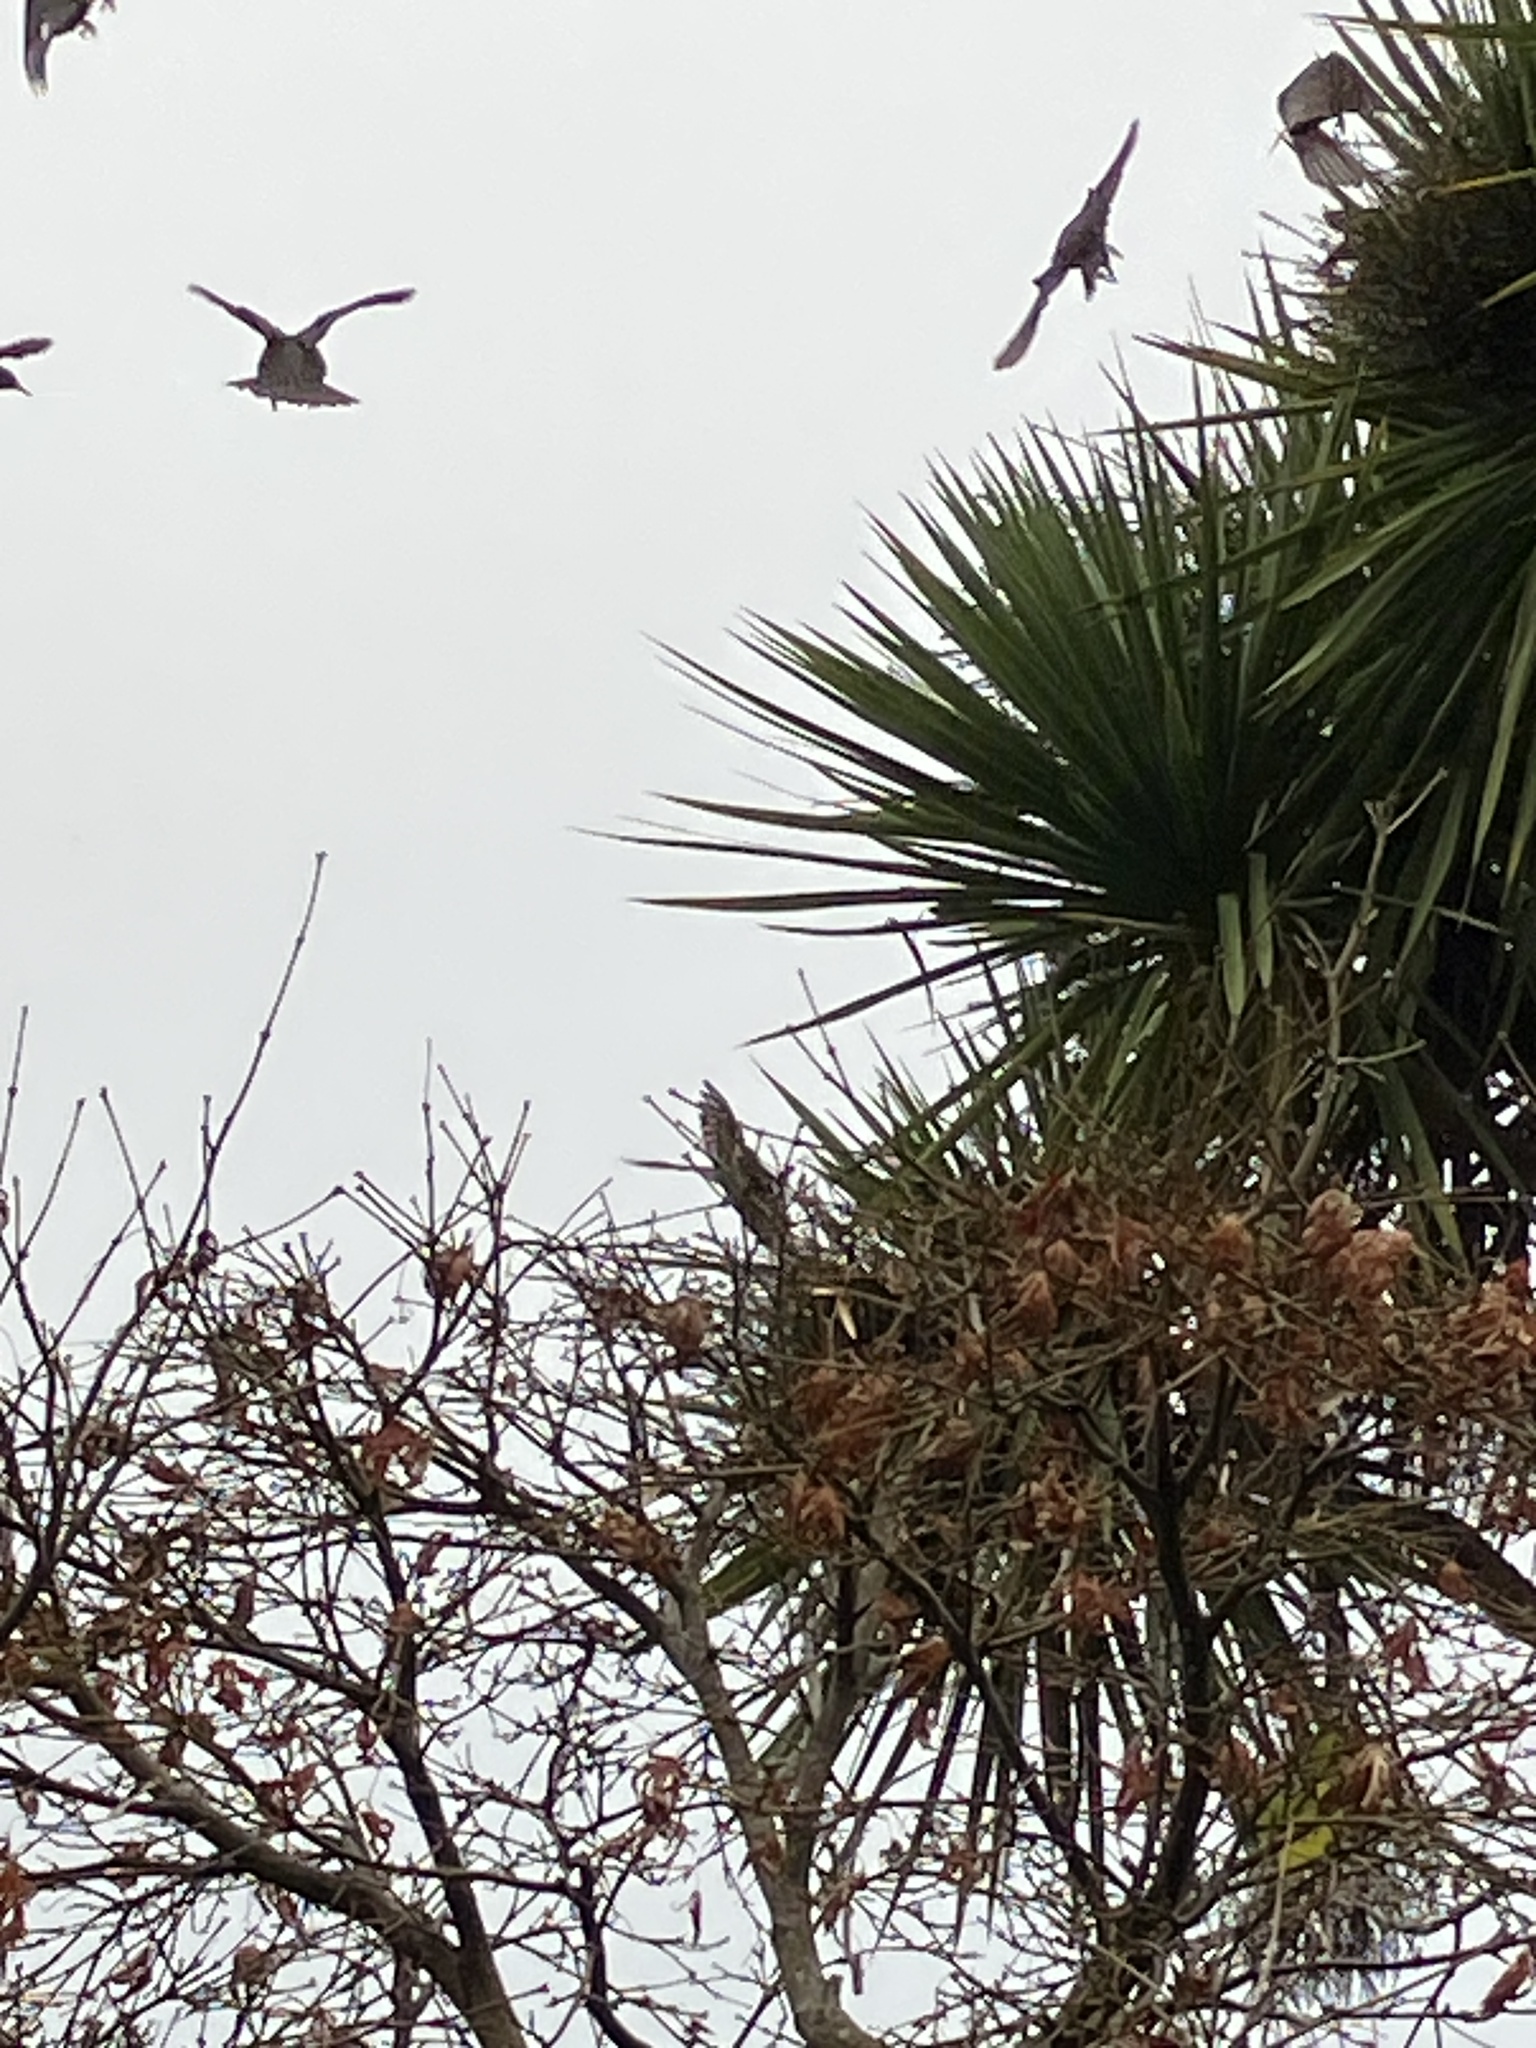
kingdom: Animalia
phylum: Chordata
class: Aves
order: Passeriformes
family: Sturnidae
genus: Sturnus
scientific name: Sturnus vulgaris
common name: Common starling
